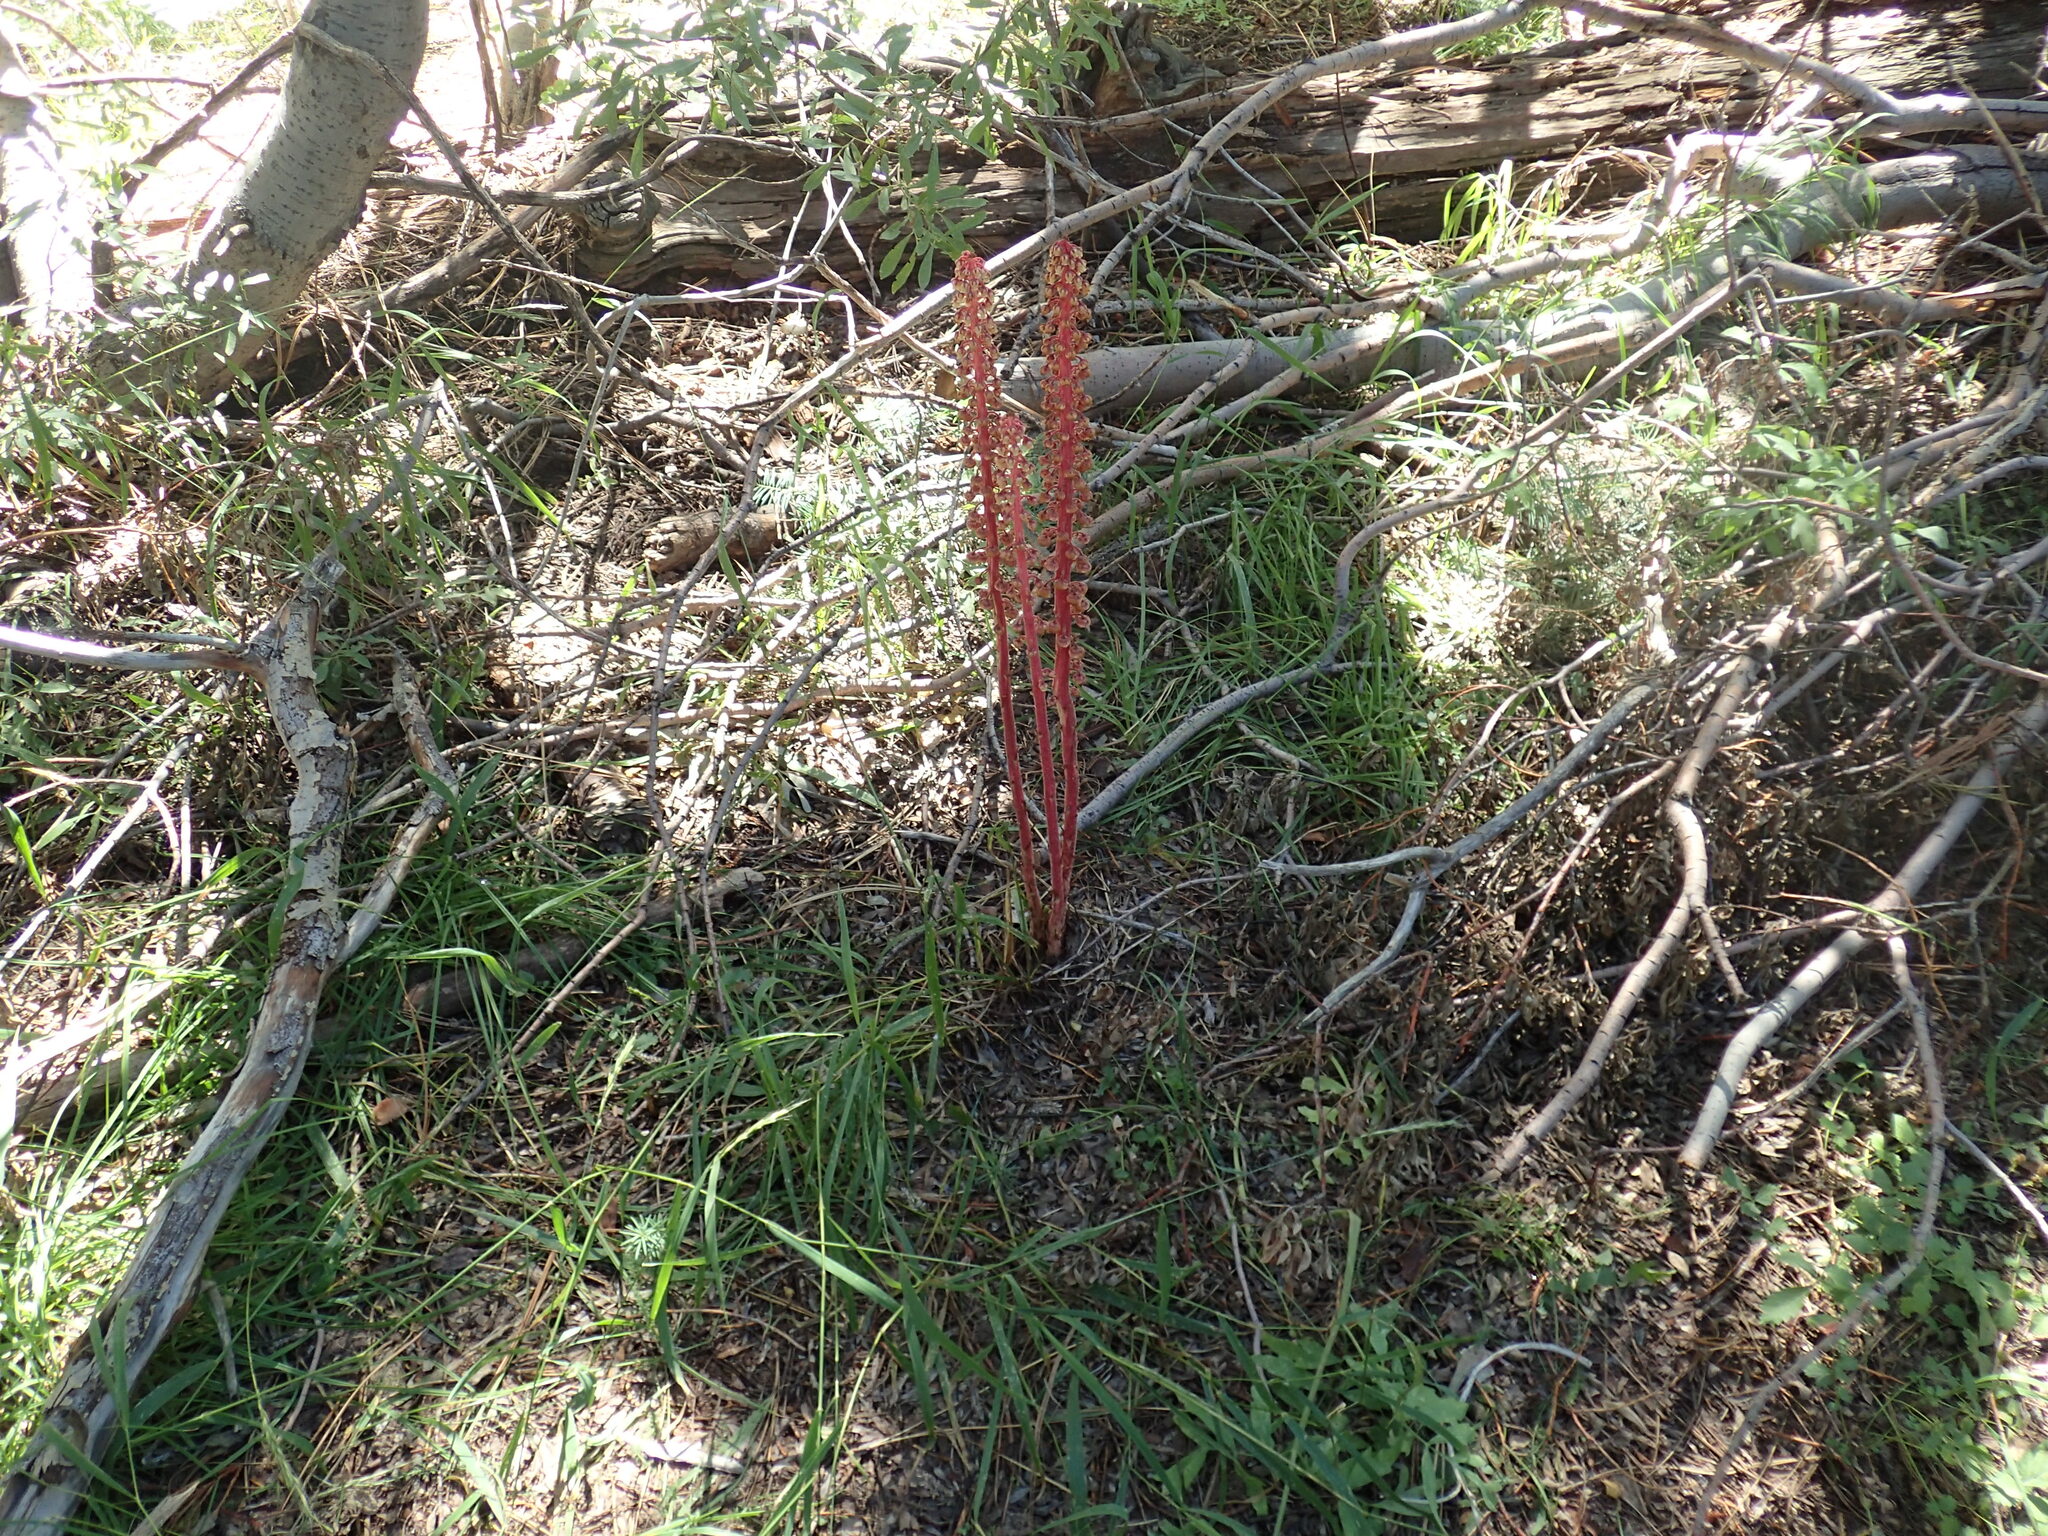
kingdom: Plantae
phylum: Tracheophyta
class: Magnoliopsida
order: Ericales
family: Ericaceae
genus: Pterospora
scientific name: Pterospora andromedea
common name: Giant bird's-nest
